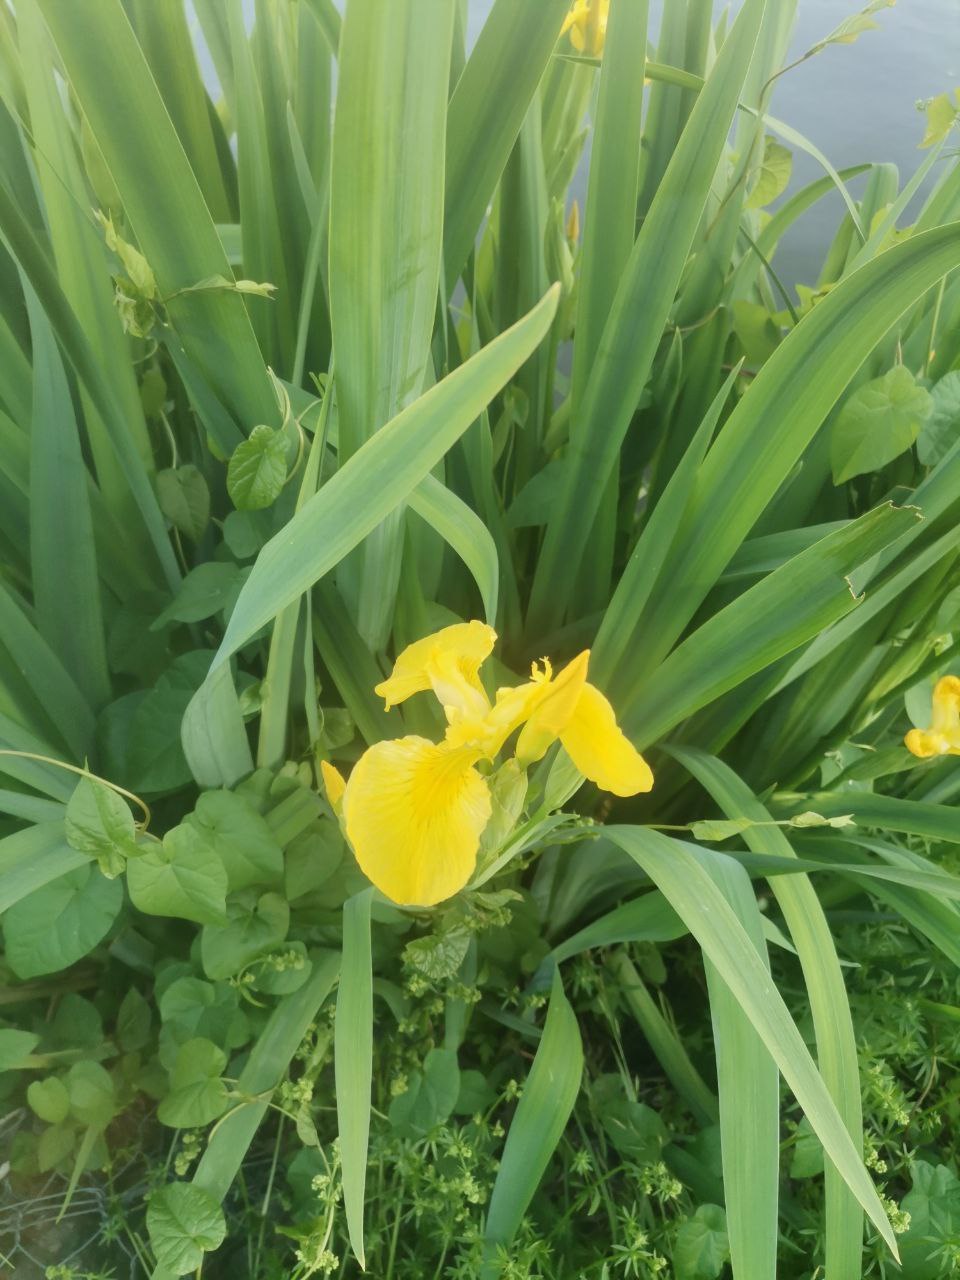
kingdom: Plantae
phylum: Tracheophyta
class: Liliopsida
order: Asparagales
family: Iridaceae
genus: Iris
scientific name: Iris pseudacorus
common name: Yellow flag
